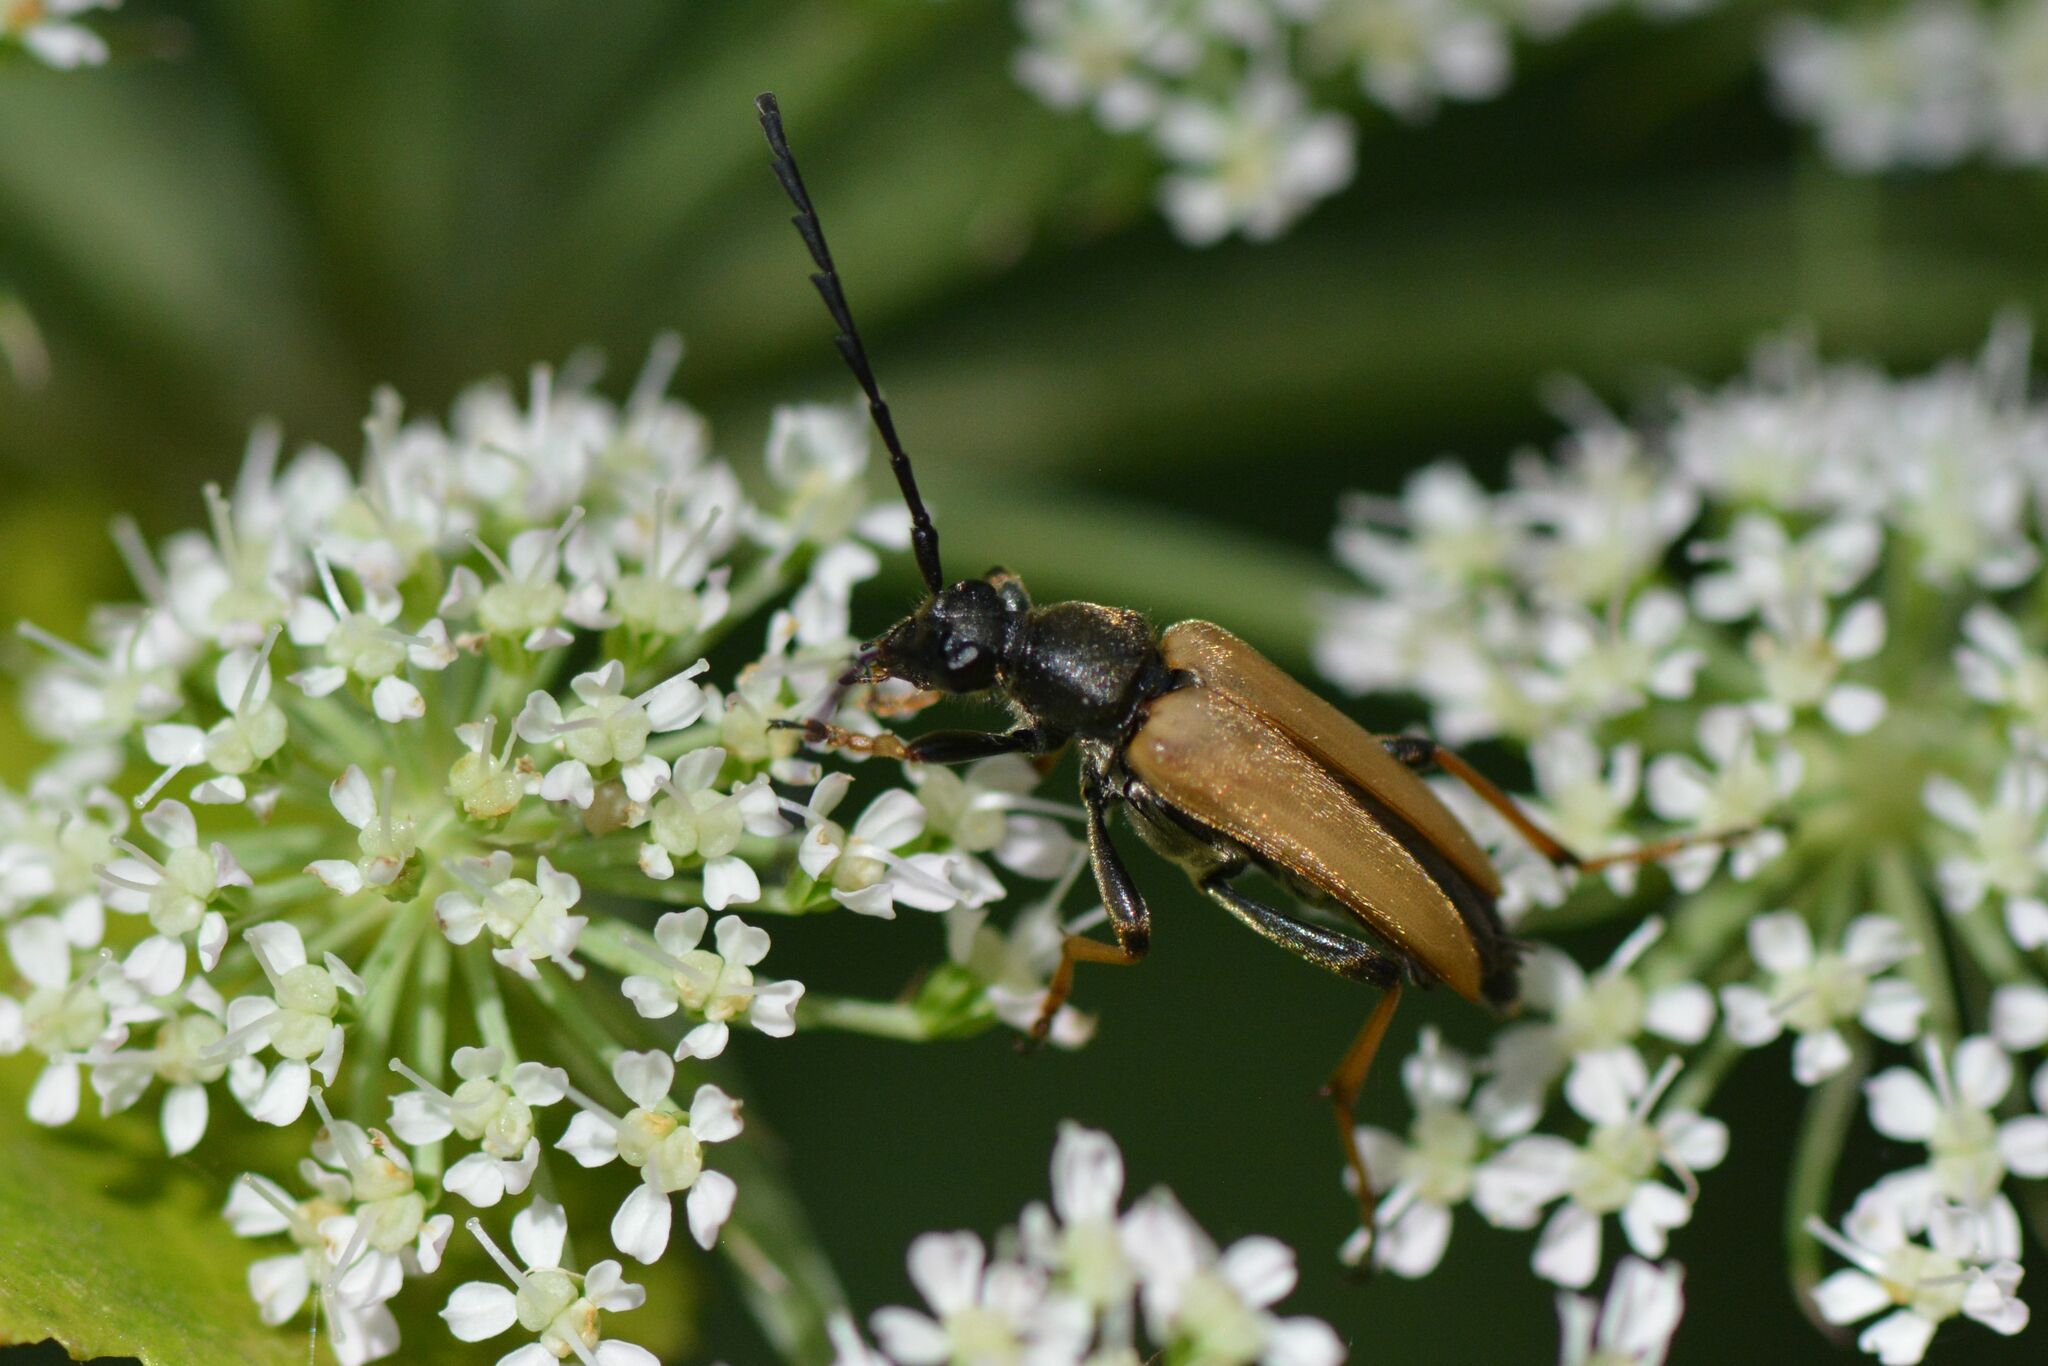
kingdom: Animalia
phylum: Arthropoda
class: Insecta
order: Coleoptera
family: Cerambycidae
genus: Stictoleptura
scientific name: Stictoleptura rubra
